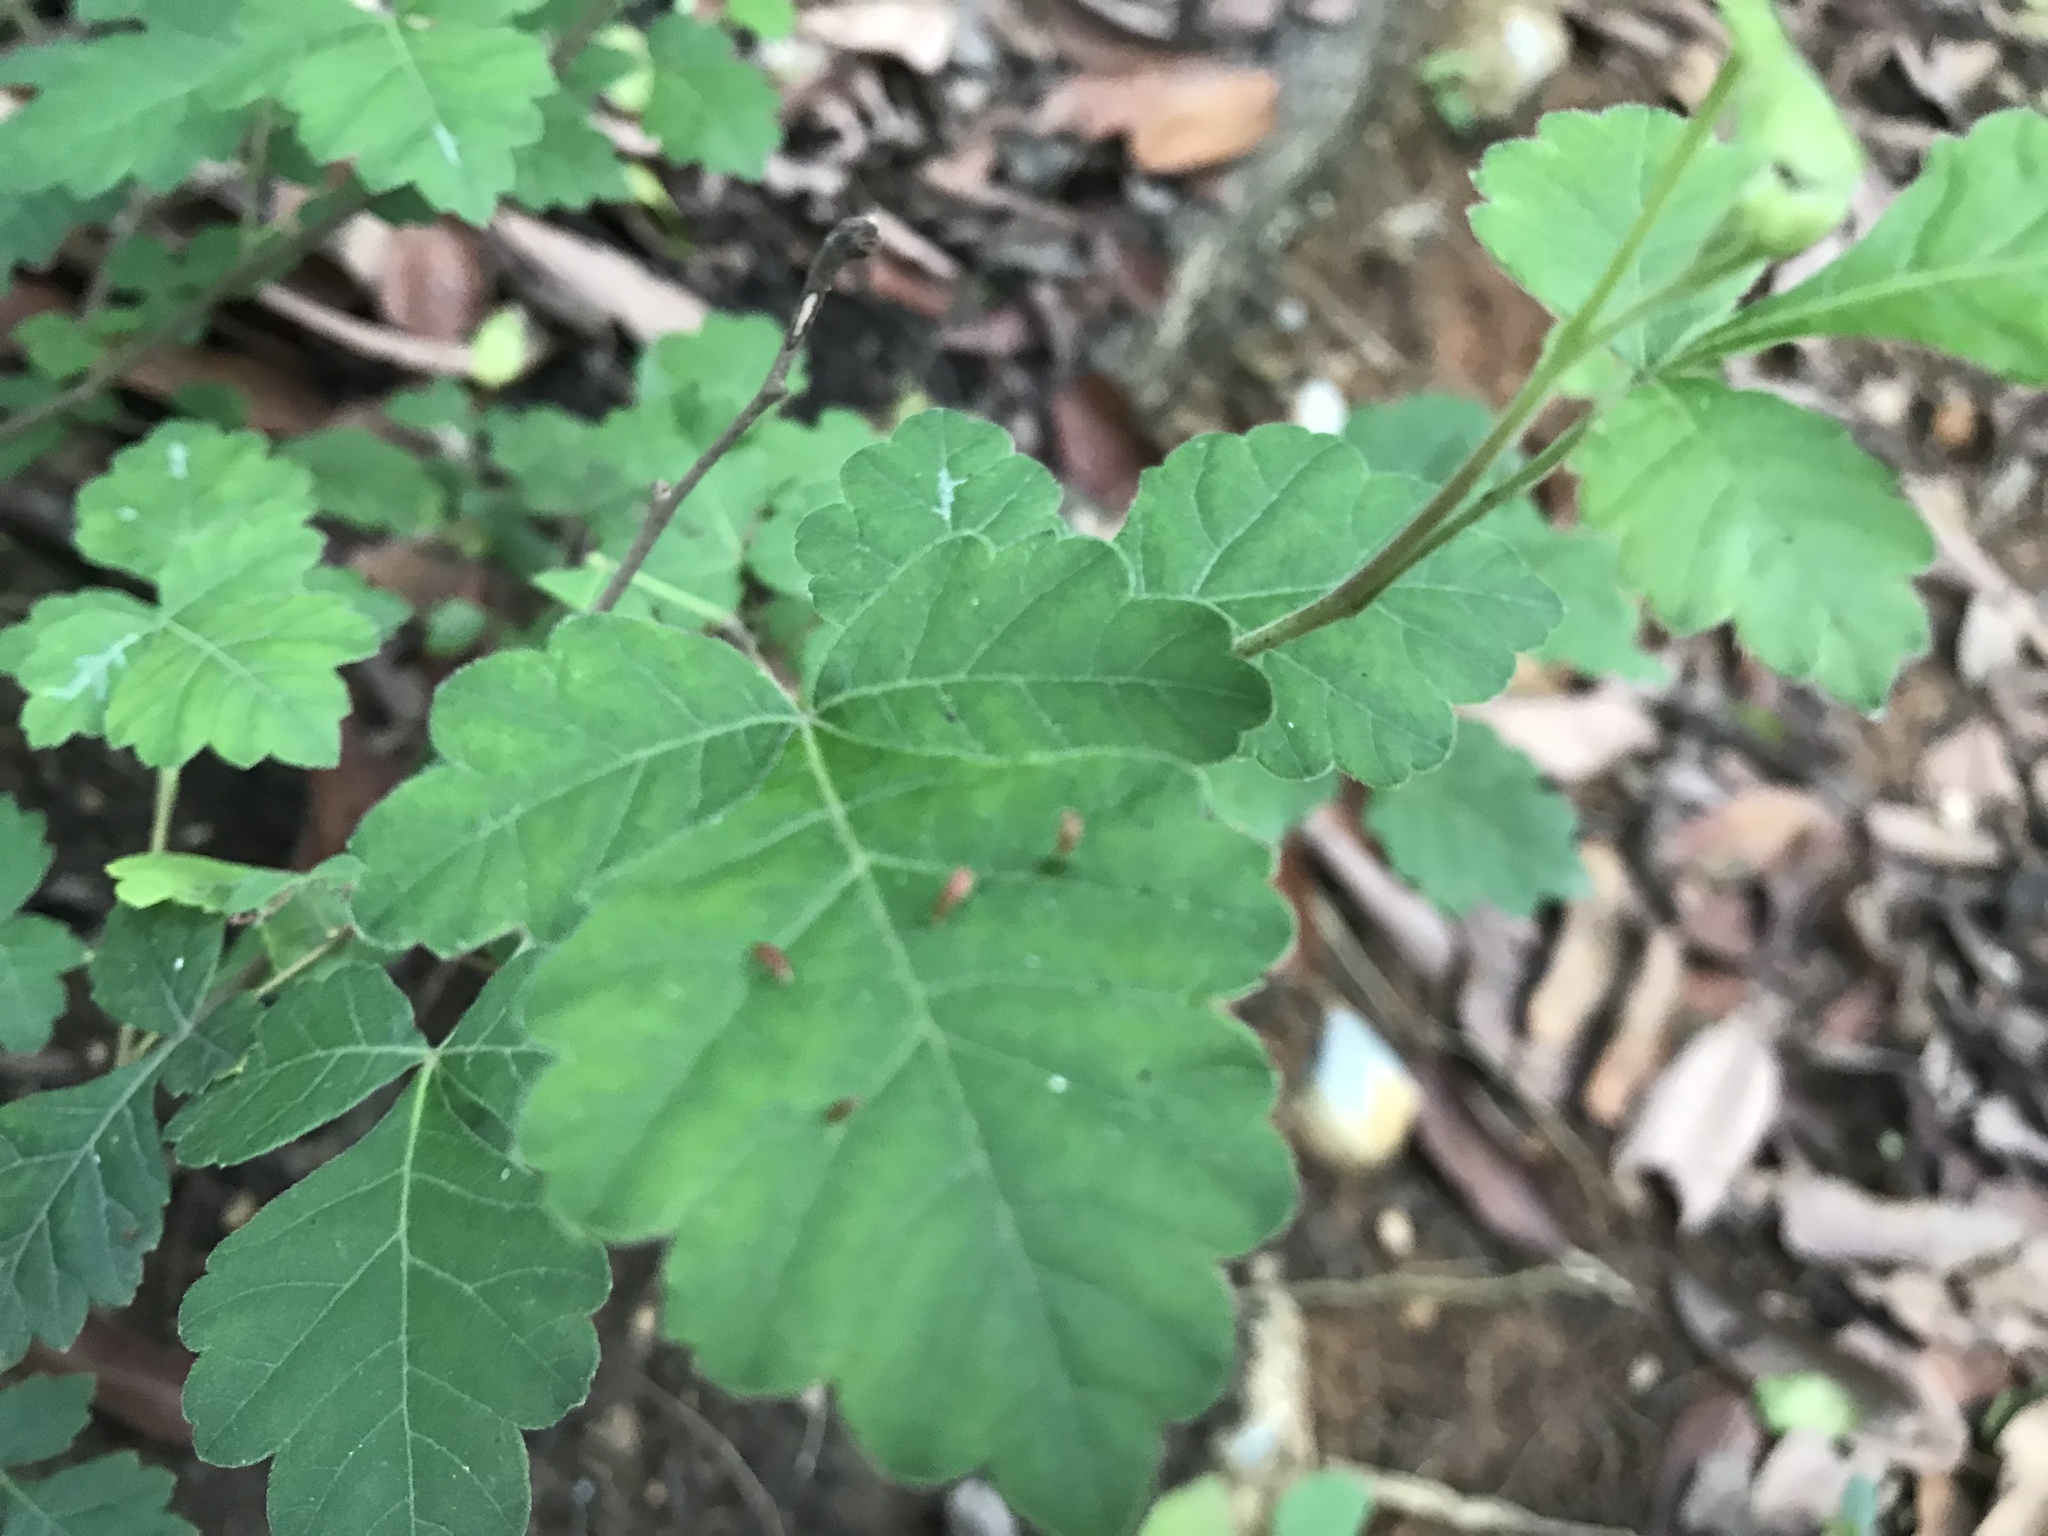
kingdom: Plantae
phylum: Tracheophyta
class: Magnoliopsida
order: Sapindales
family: Anacardiaceae
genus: Rhus
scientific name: Rhus aromatica
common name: Aromatic sumac
